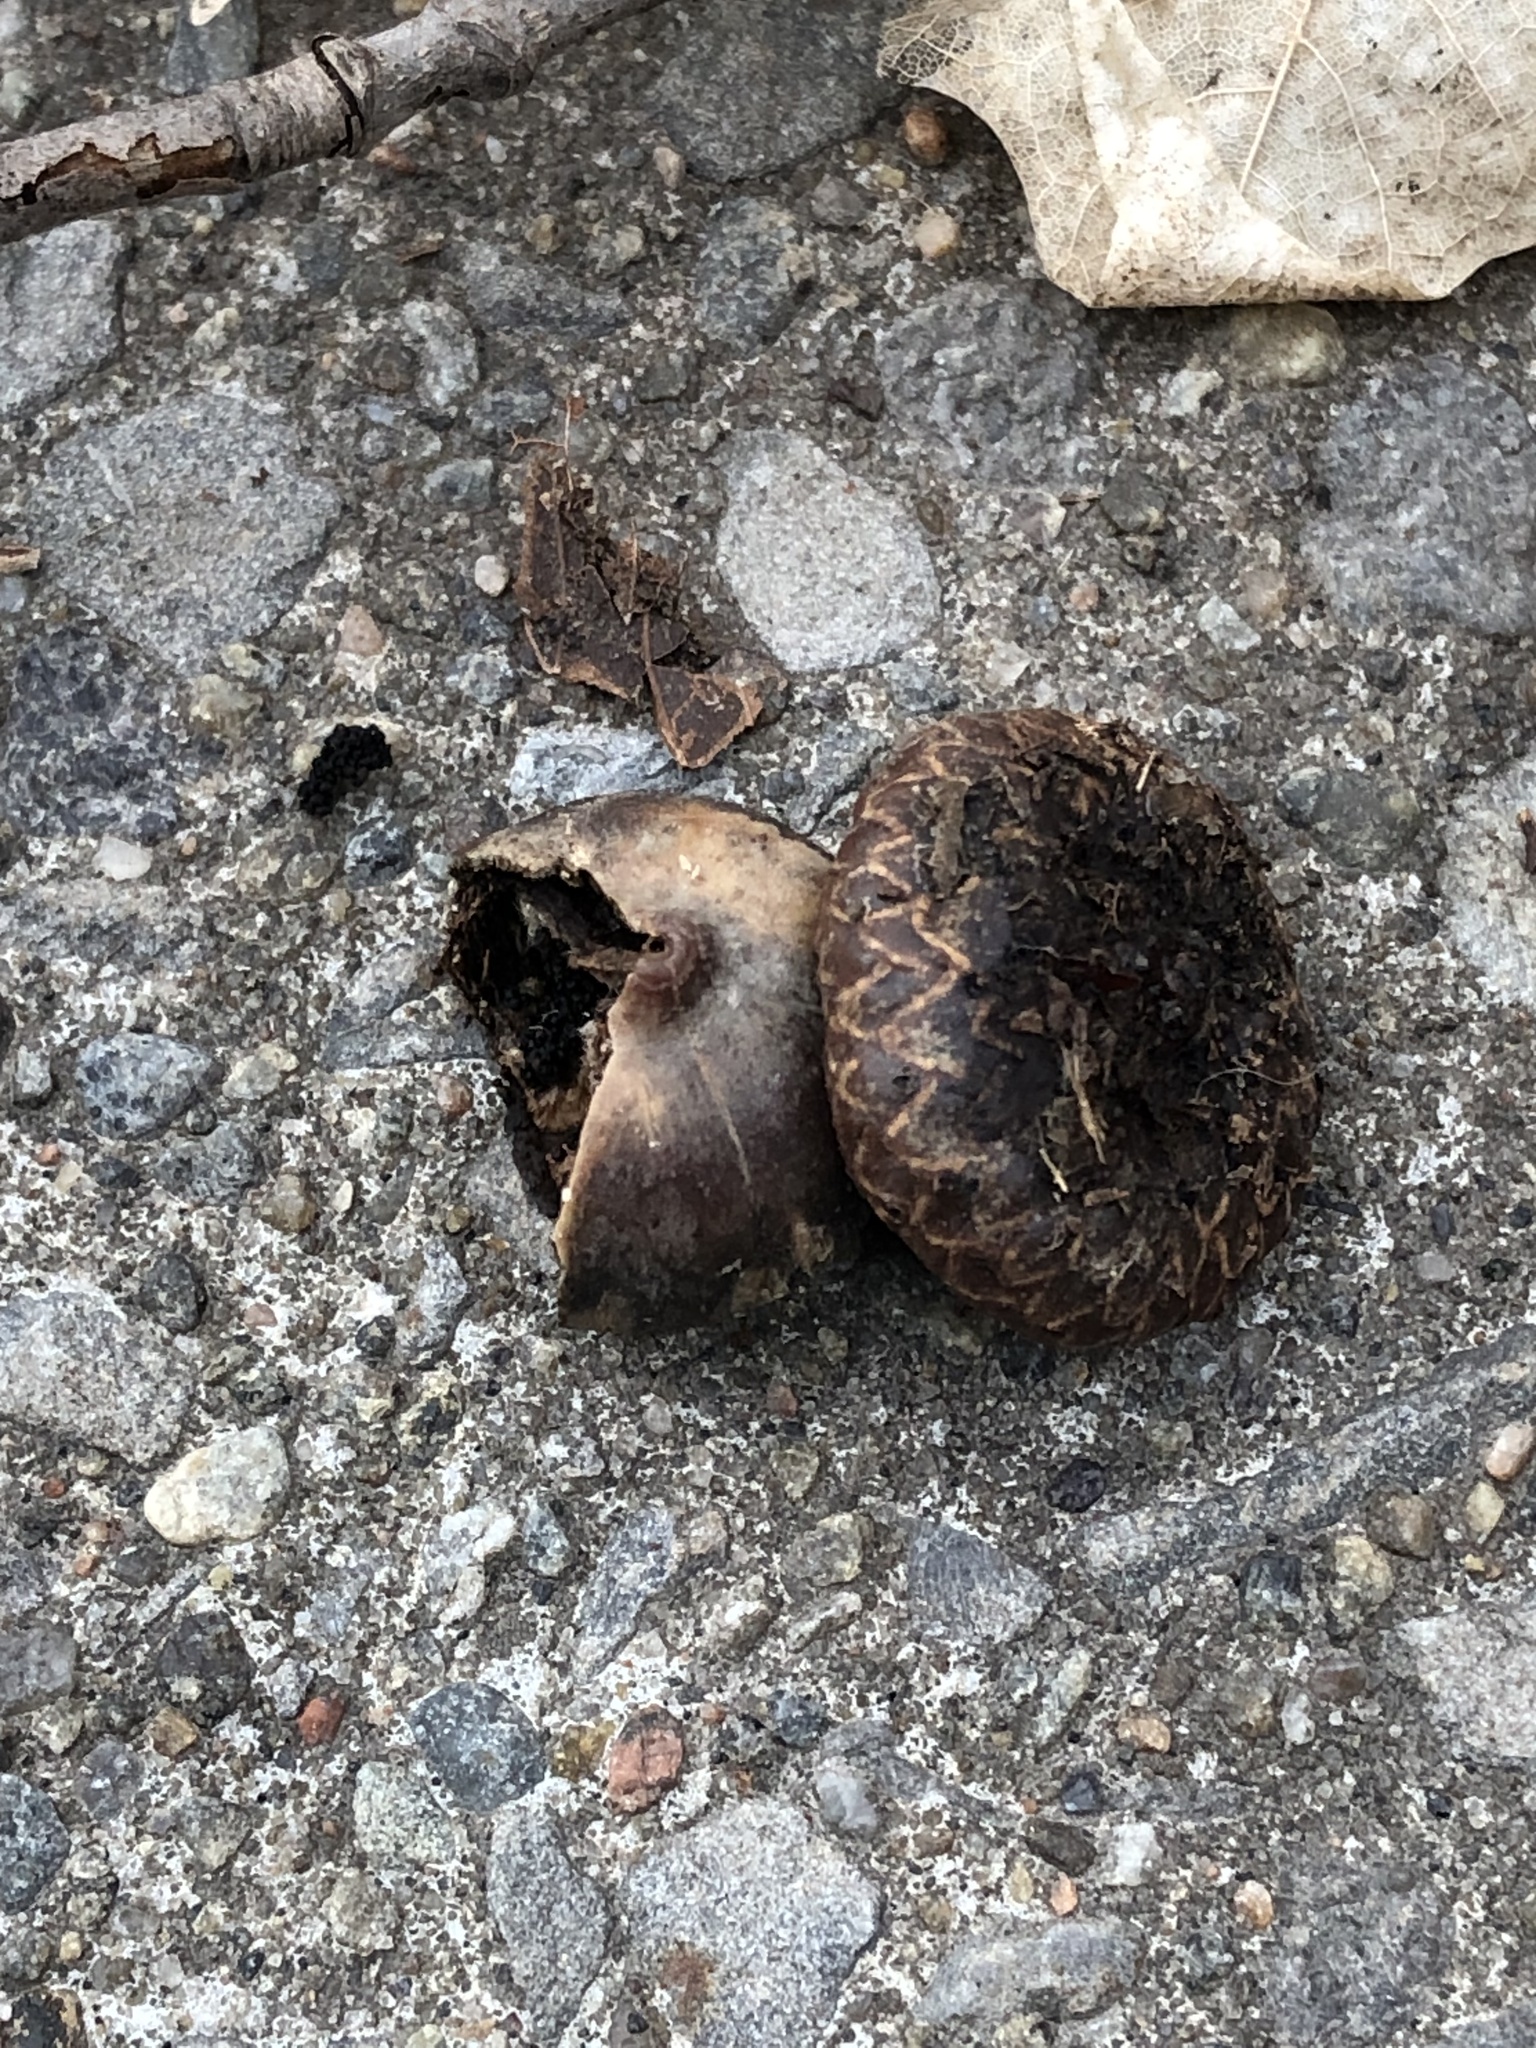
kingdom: Plantae
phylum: Tracheophyta
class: Magnoliopsida
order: Fagales
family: Fagaceae
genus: Quercus
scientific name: Quercus rubra
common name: Red oak
